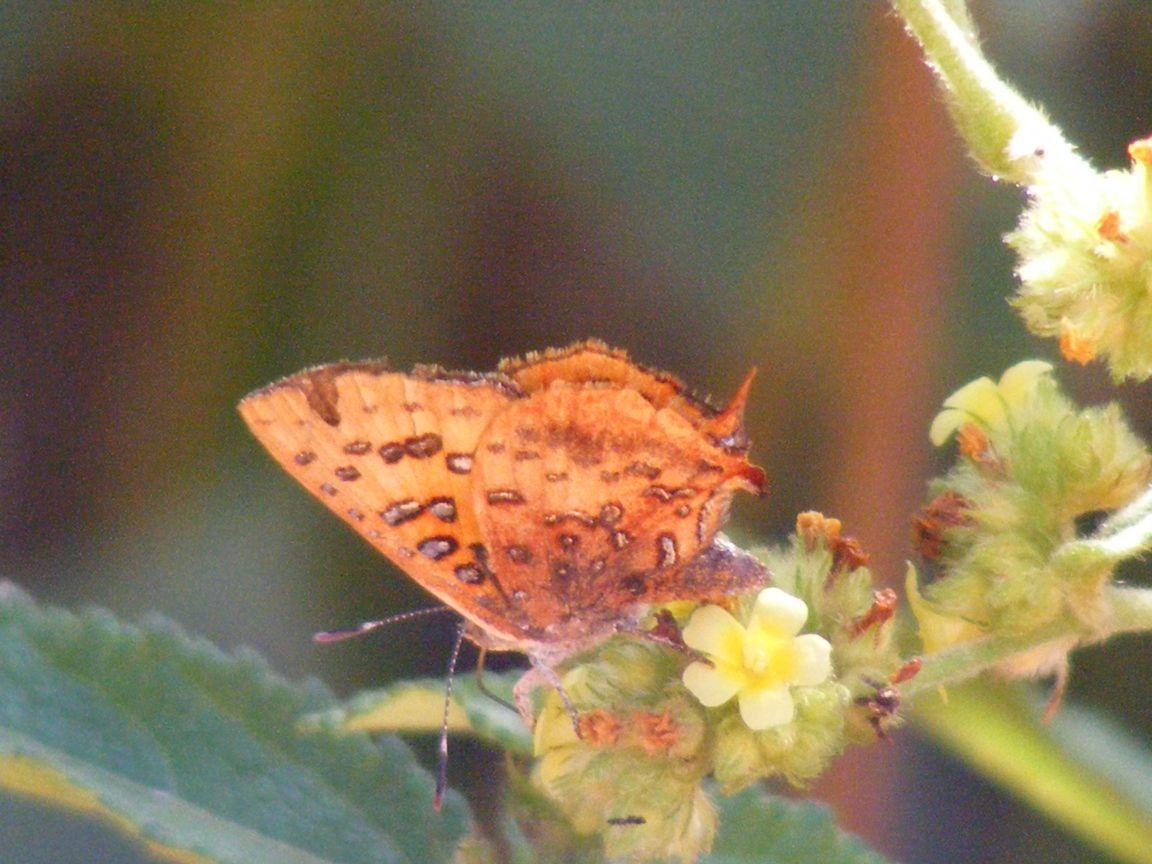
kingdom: Animalia
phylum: Arthropoda
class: Insecta
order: Lepidoptera
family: Lycaenidae
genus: Axiocerses
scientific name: Axiocerses perion
